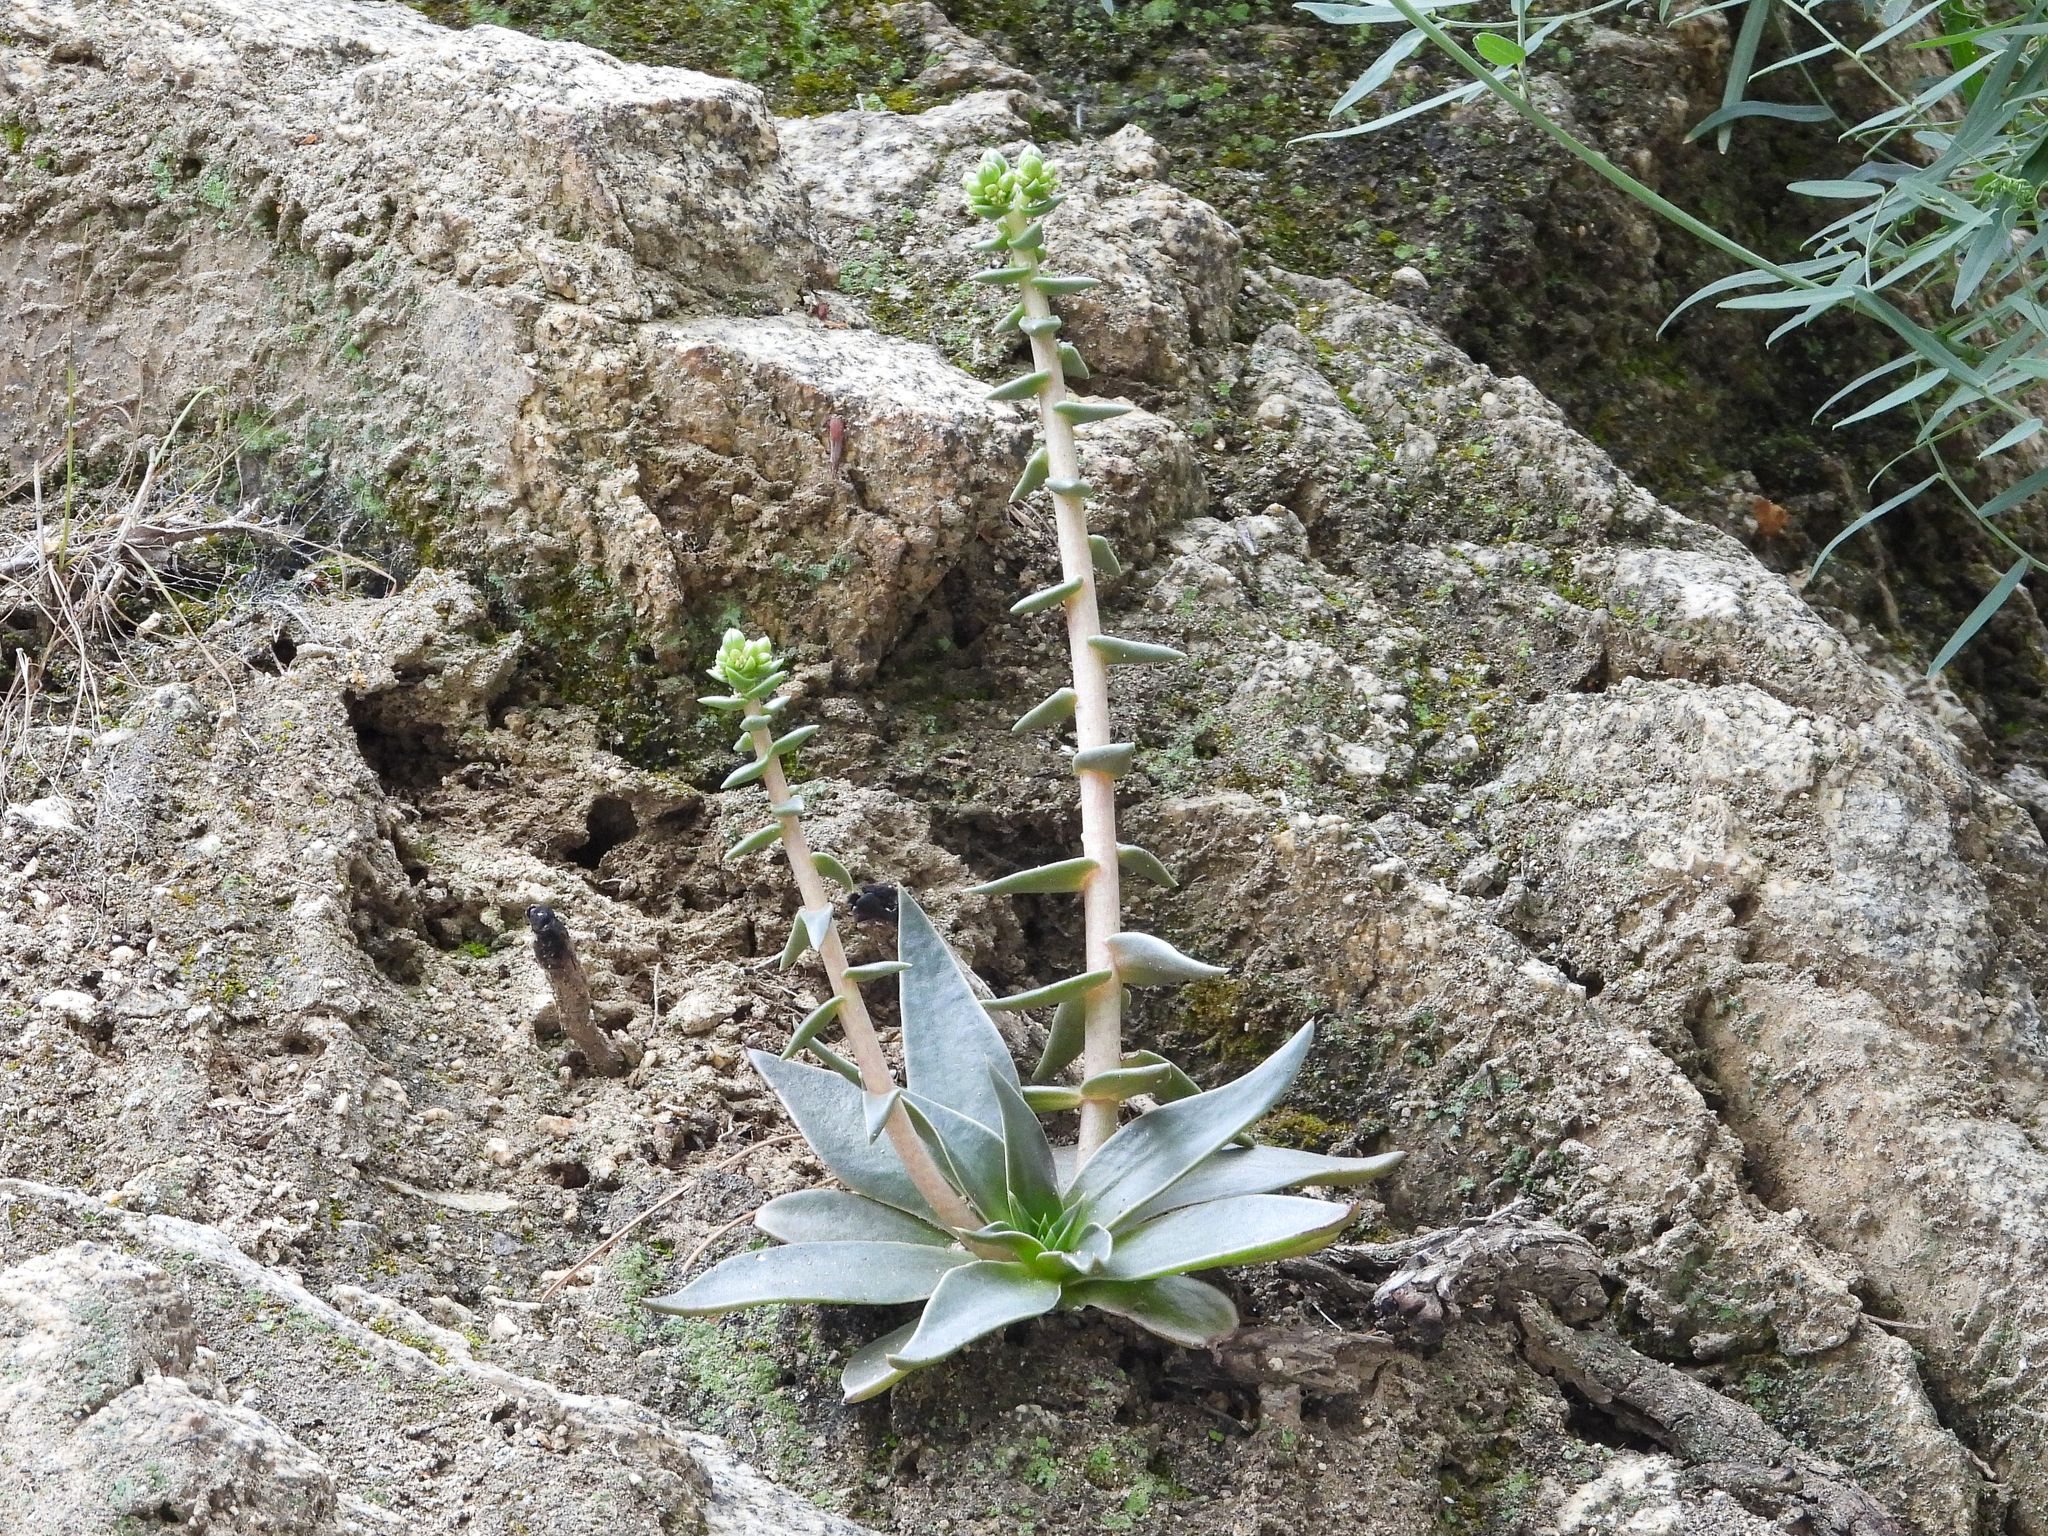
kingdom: Plantae
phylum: Tracheophyta
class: Magnoliopsida
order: Saxifragales
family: Crassulaceae
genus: Dudleya
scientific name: Dudleya lanceolata
